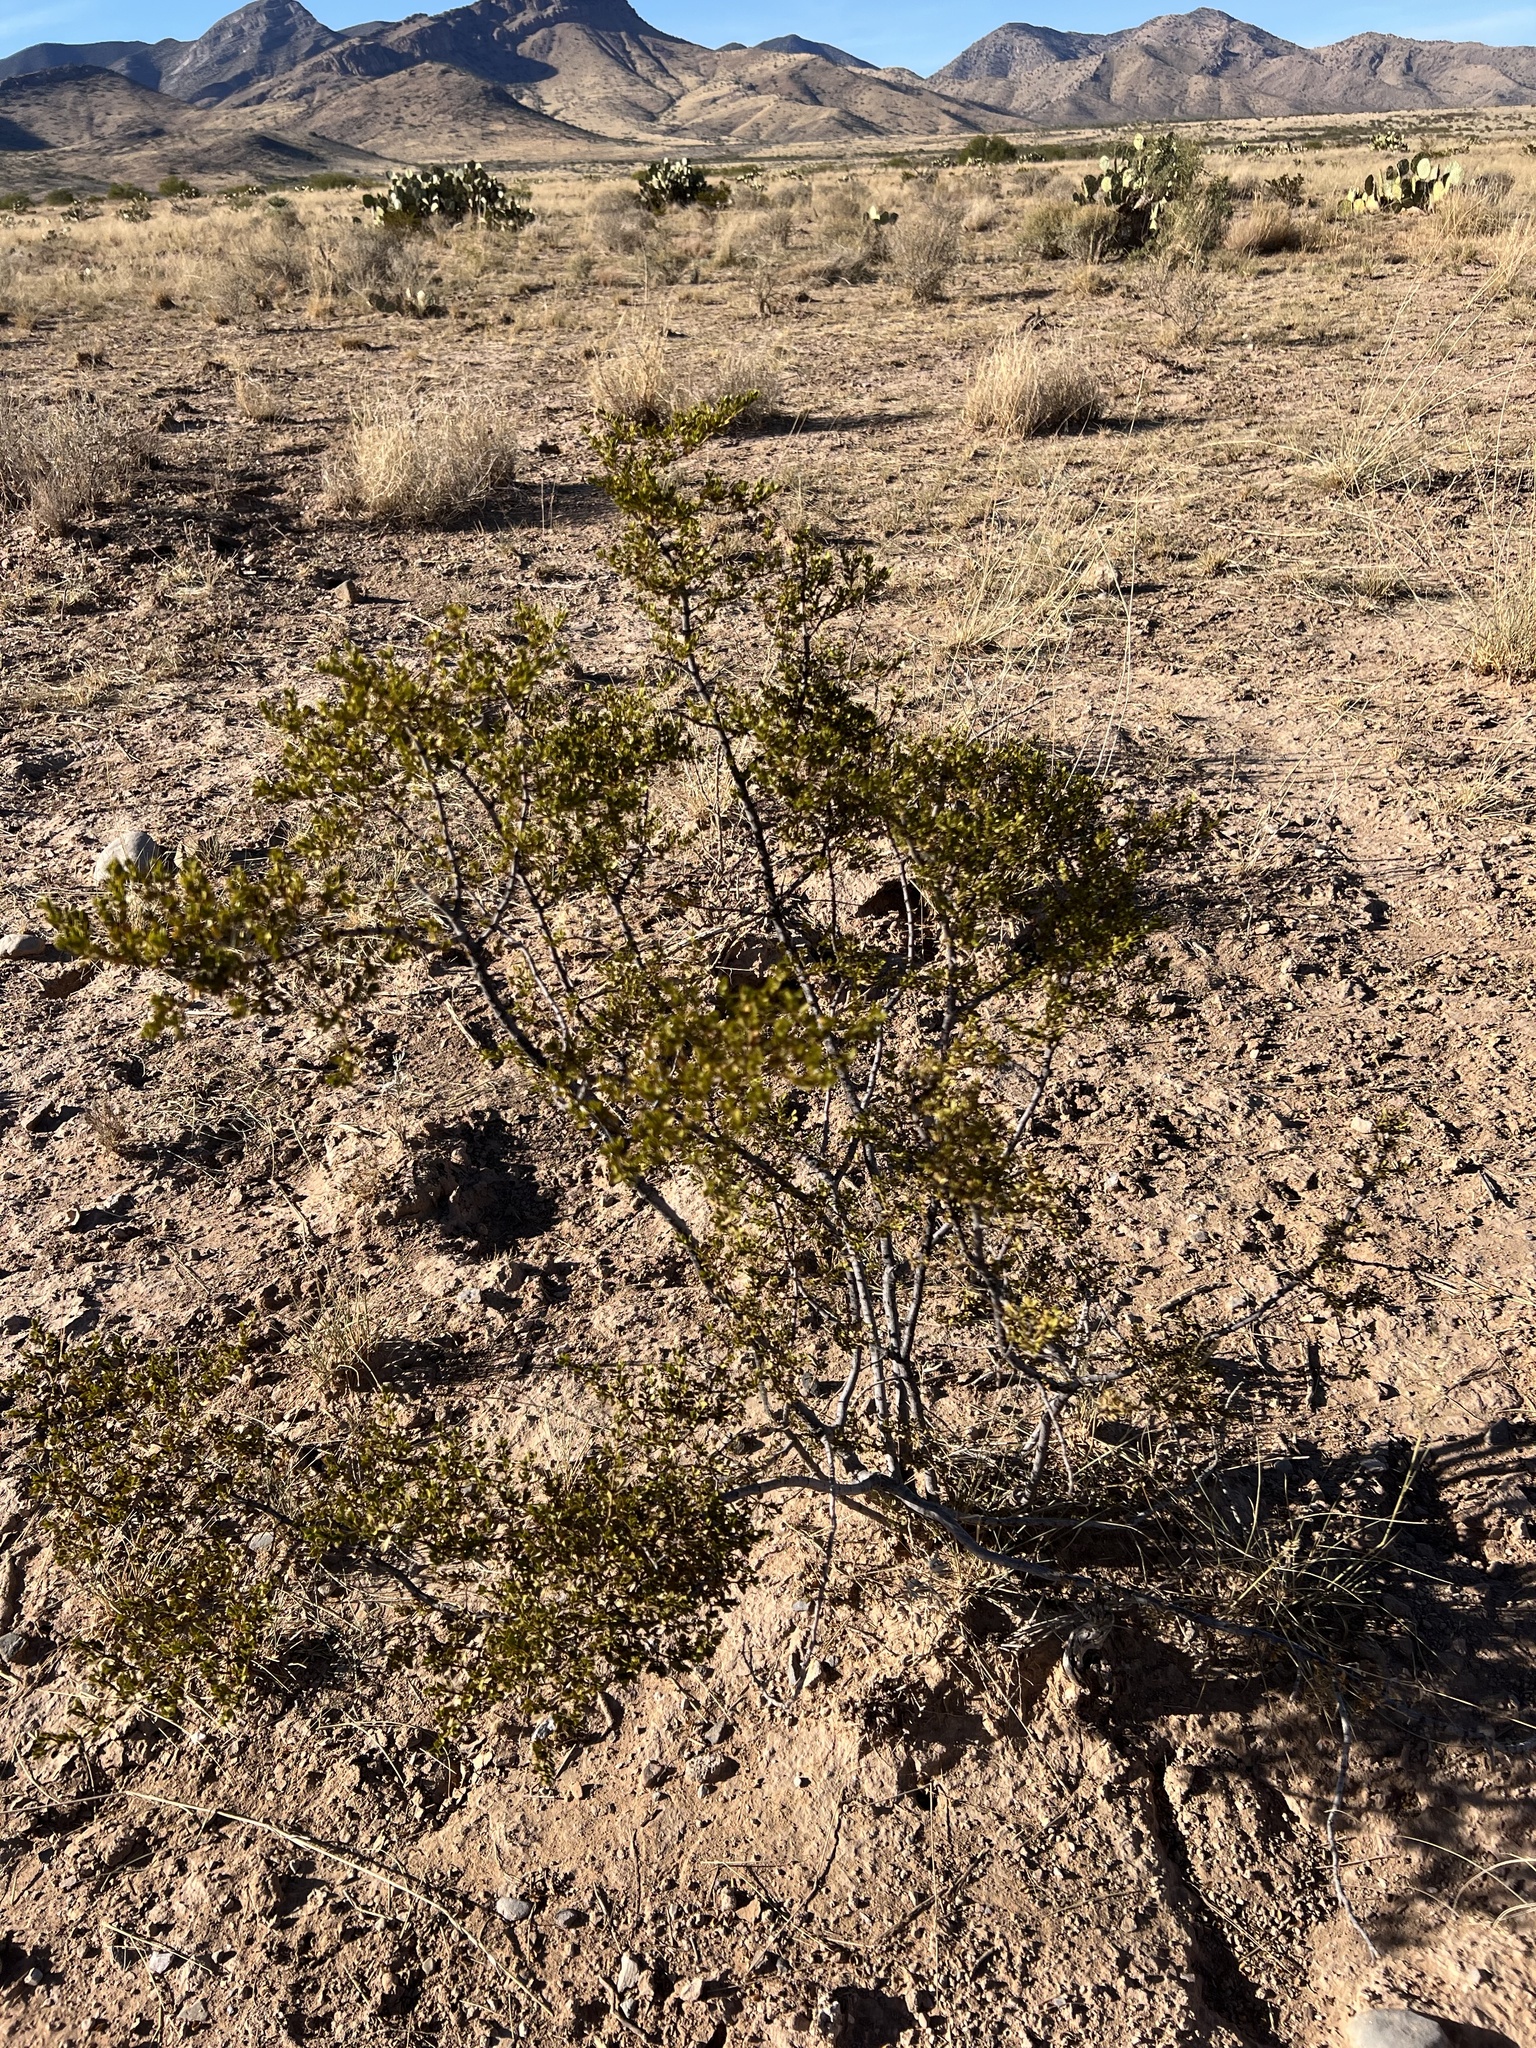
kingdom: Plantae
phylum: Tracheophyta
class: Magnoliopsida
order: Zygophyllales
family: Zygophyllaceae
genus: Larrea
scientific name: Larrea tridentata
